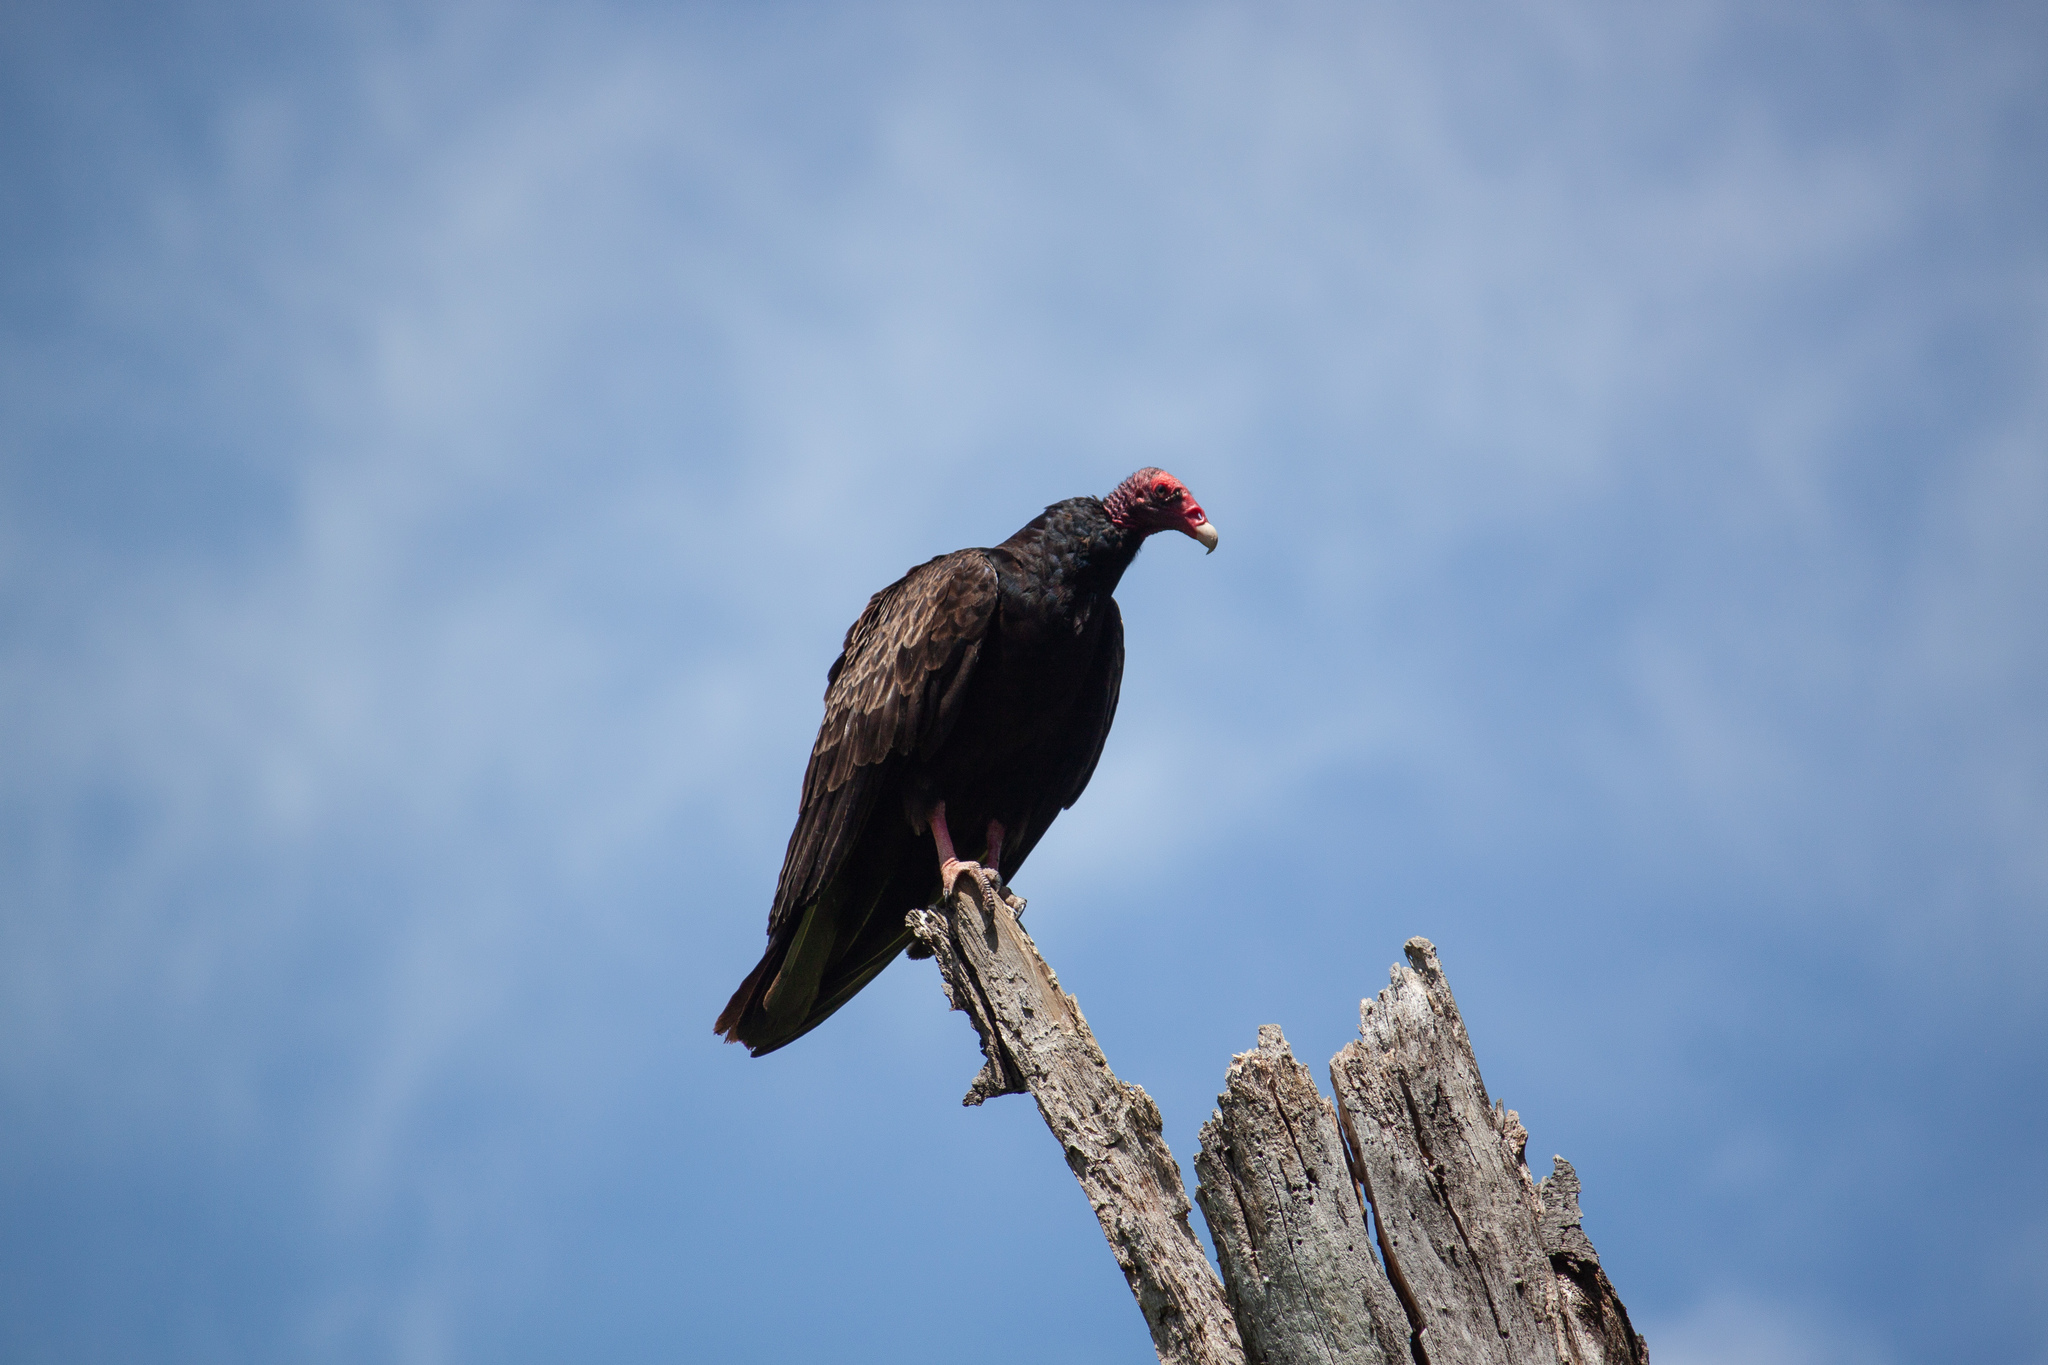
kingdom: Animalia
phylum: Chordata
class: Aves
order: Accipitriformes
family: Cathartidae
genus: Cathartes
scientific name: Cathartes aura
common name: Turkey vulture
